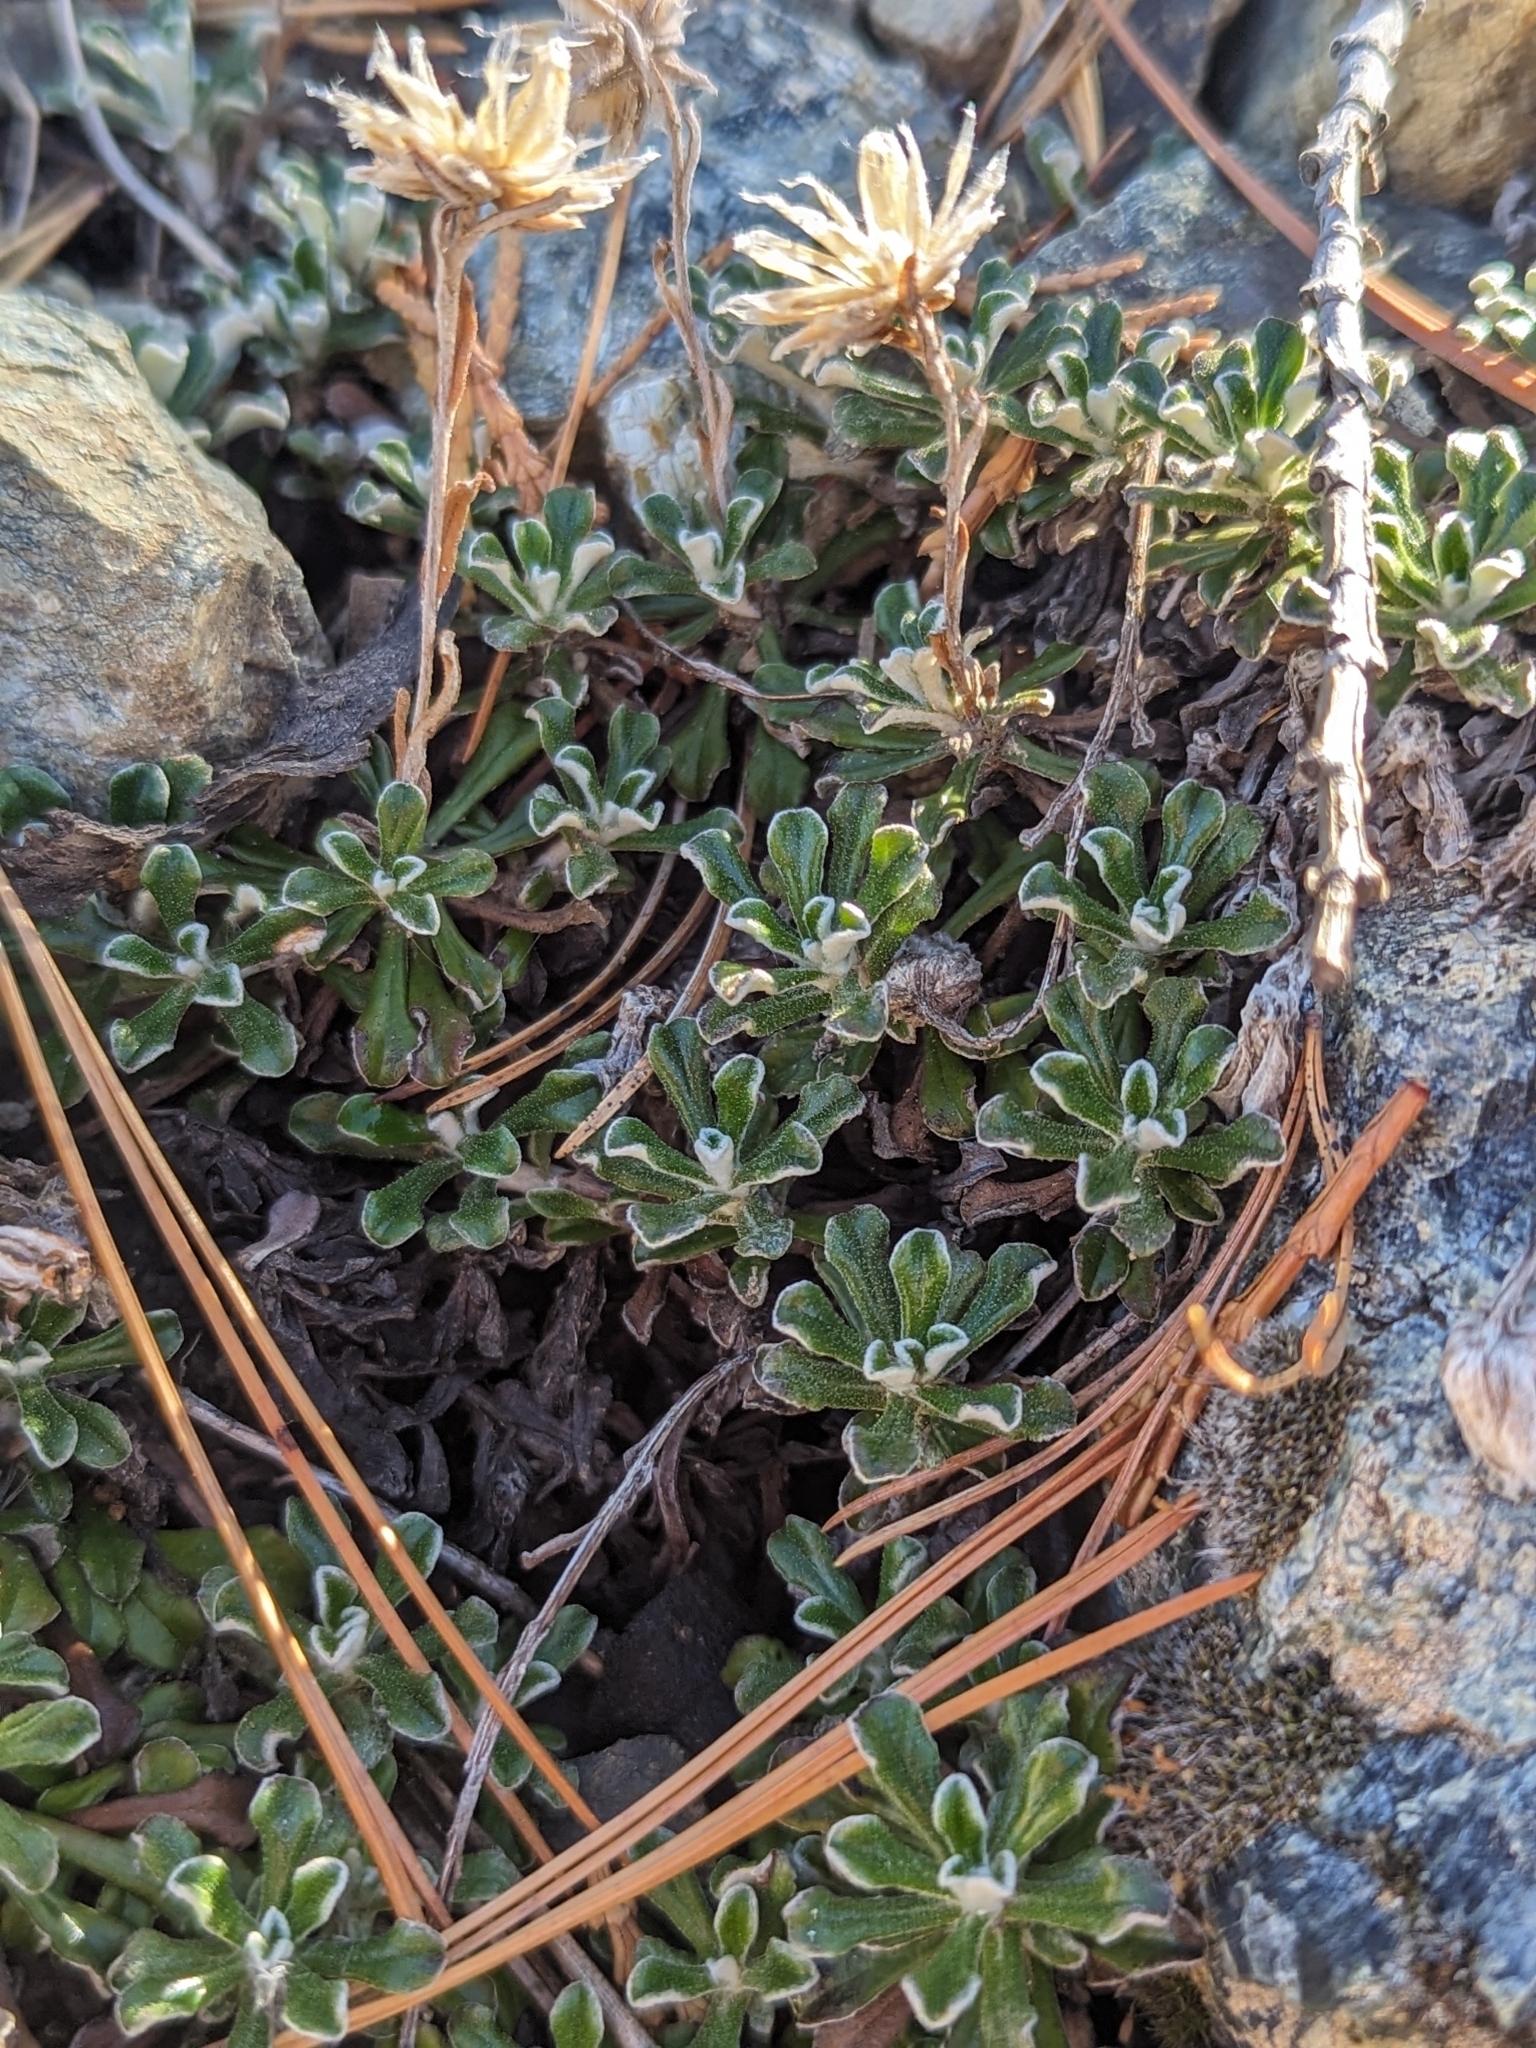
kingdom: Plantae
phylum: Tracheophyta
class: Magnoliopsida
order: Asterales
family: Asteraceae
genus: Antennaria
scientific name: Antennaria suffrutescens
